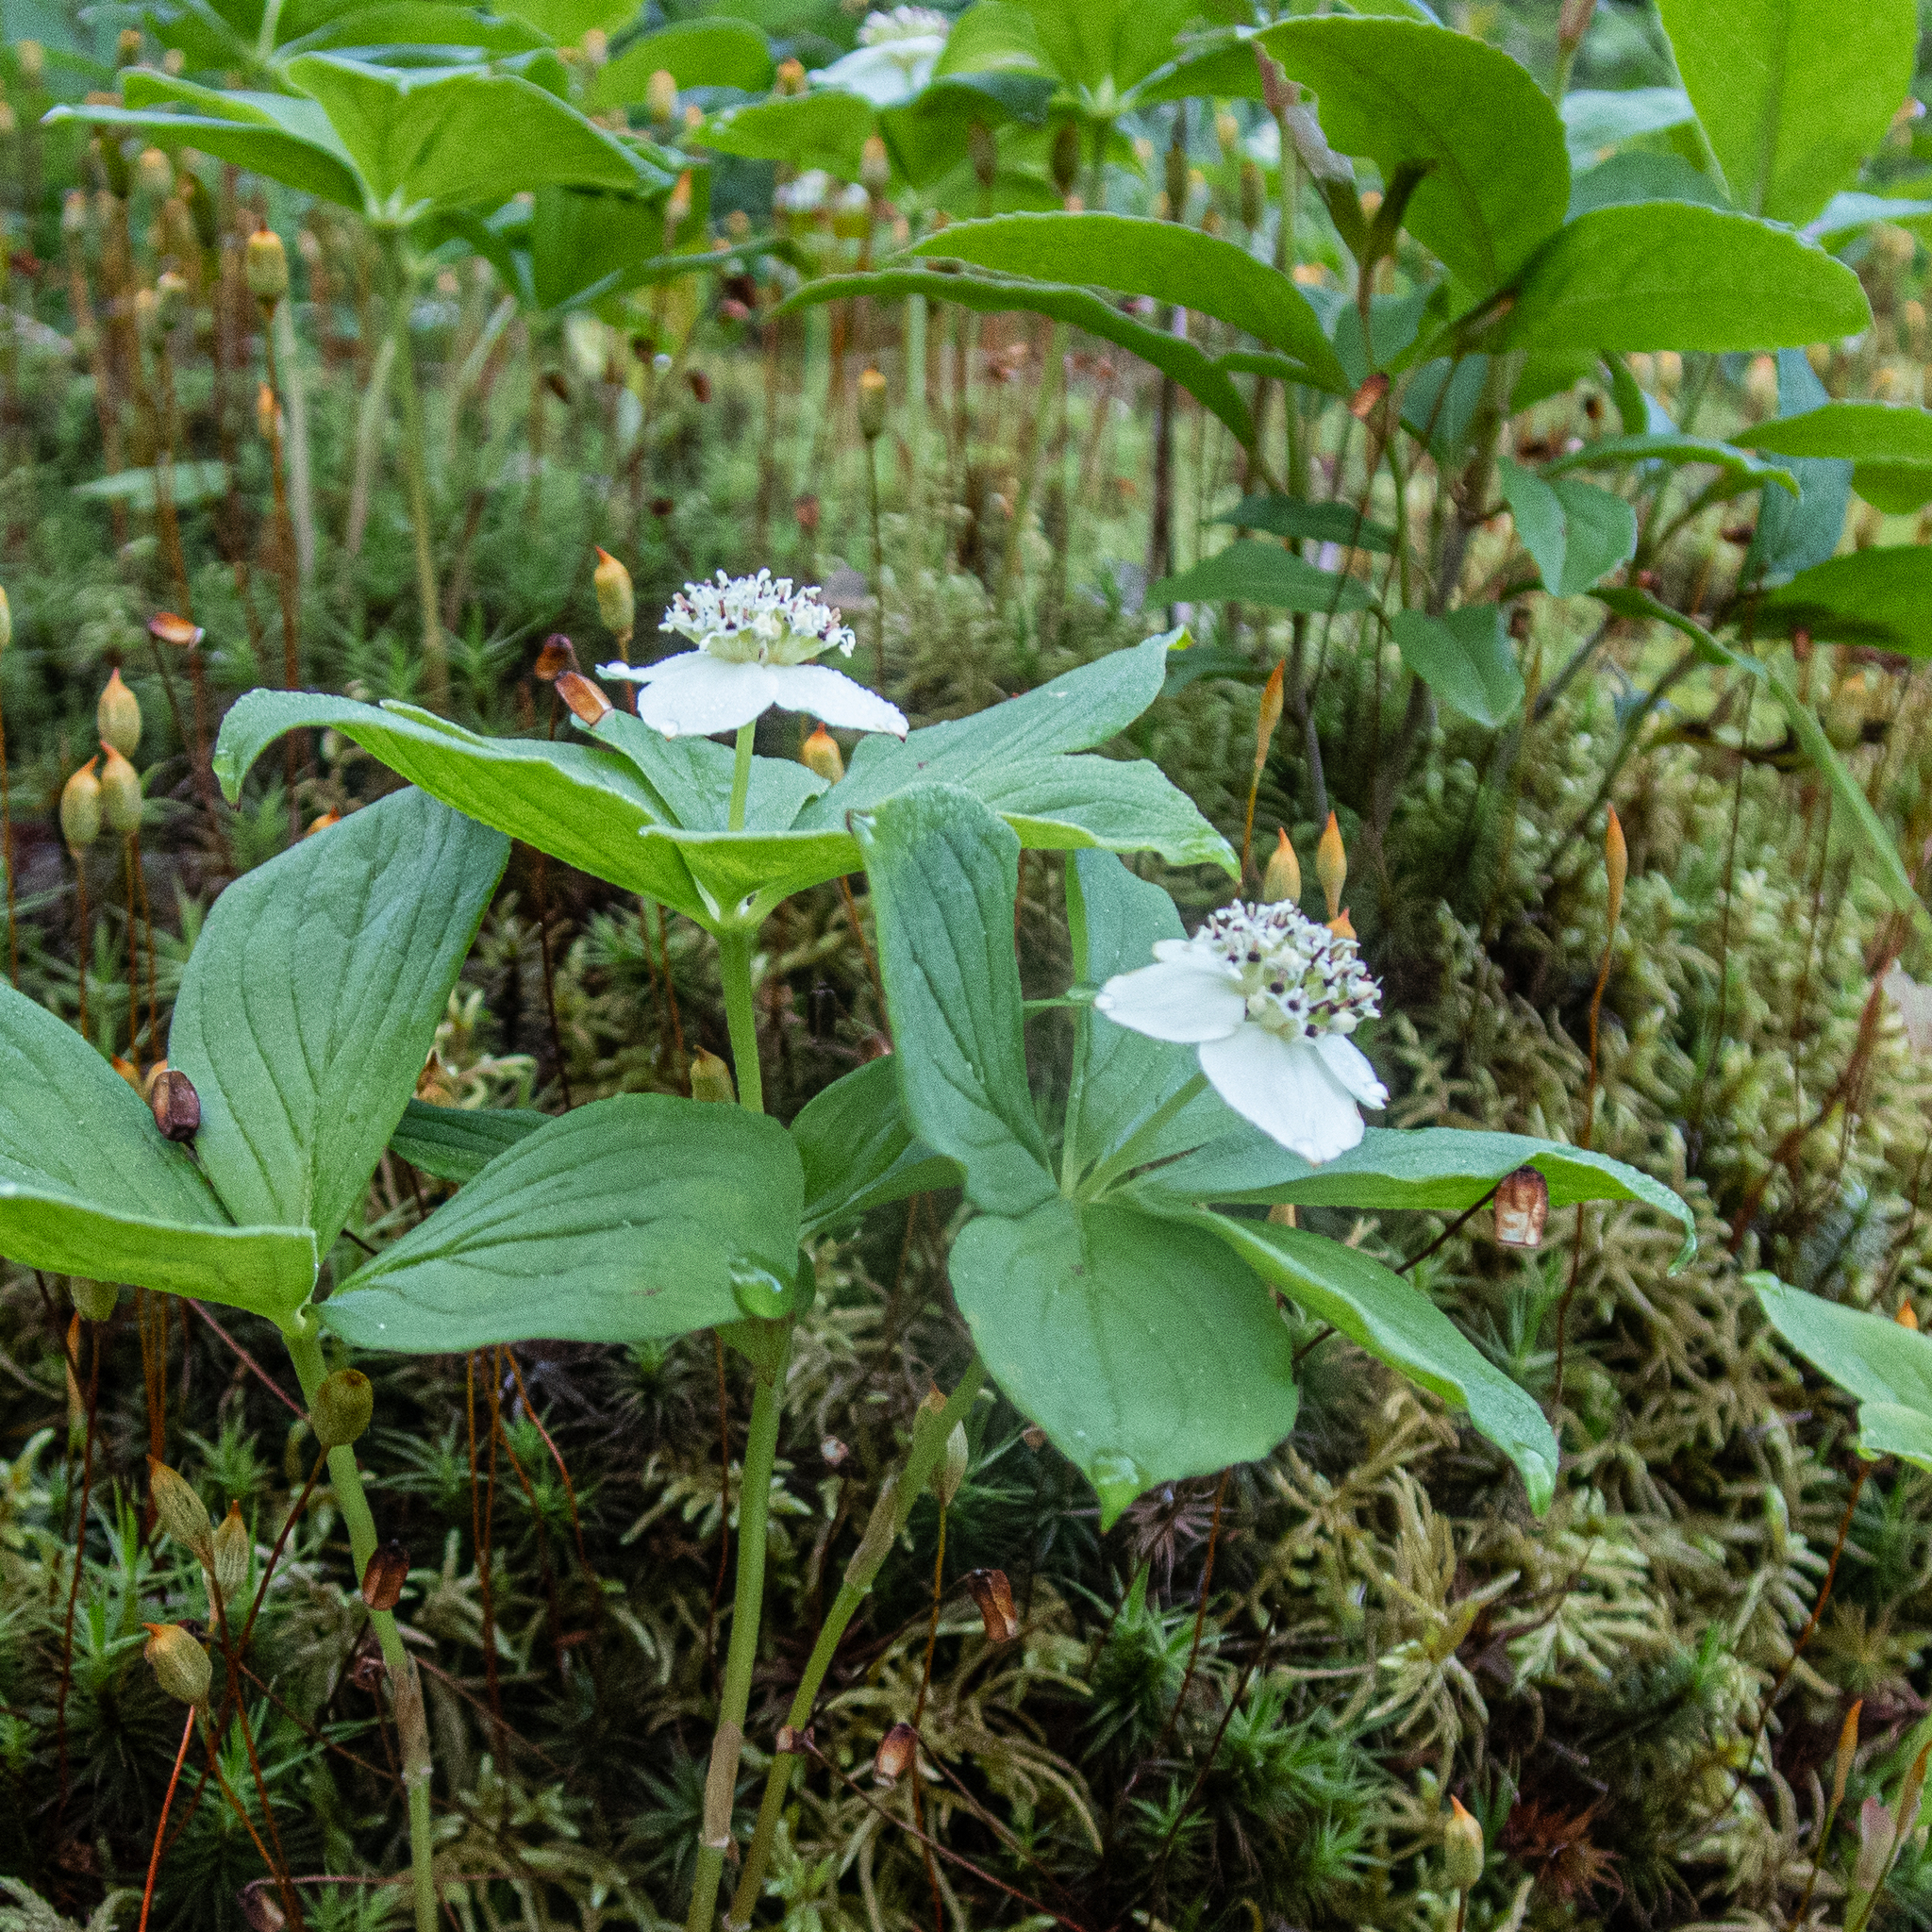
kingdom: Plantae
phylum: Tracheophyta
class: Magnoliopsida
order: Cornales
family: Cornaceae
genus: Cornus
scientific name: Cornus canadensis
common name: Creeping dogwood
